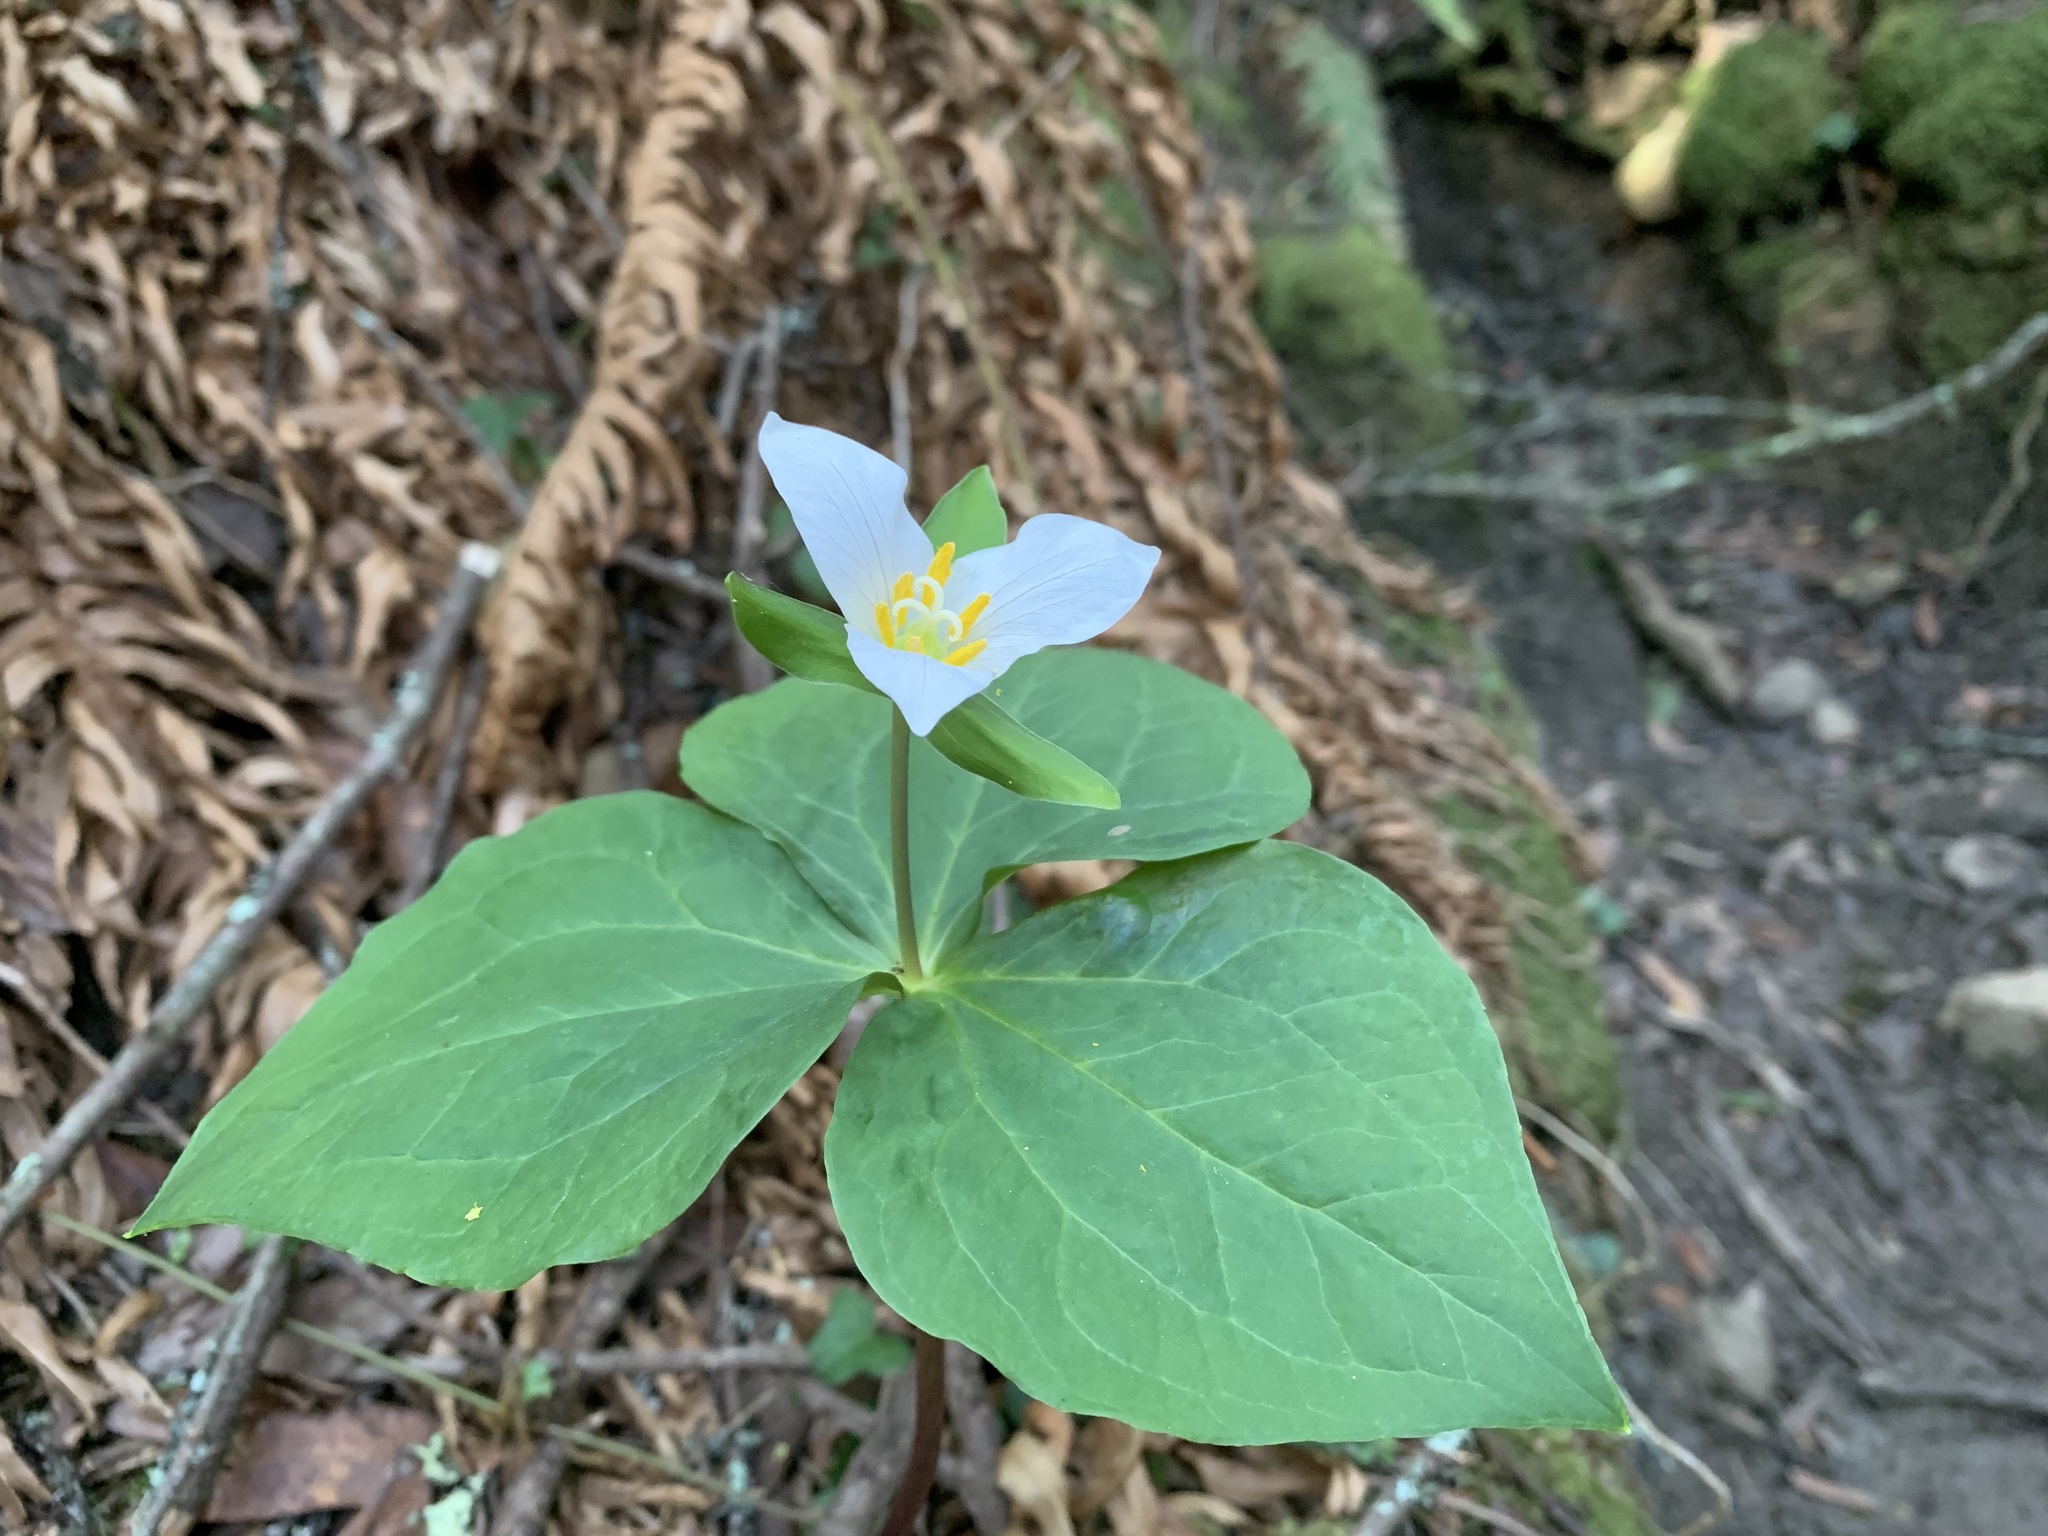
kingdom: Plantae
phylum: Tracheophyta
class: Liliopsida
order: Liliales
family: Melanthiaceae
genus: Trillium
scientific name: Trillium ovatum
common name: Pacific trillium
